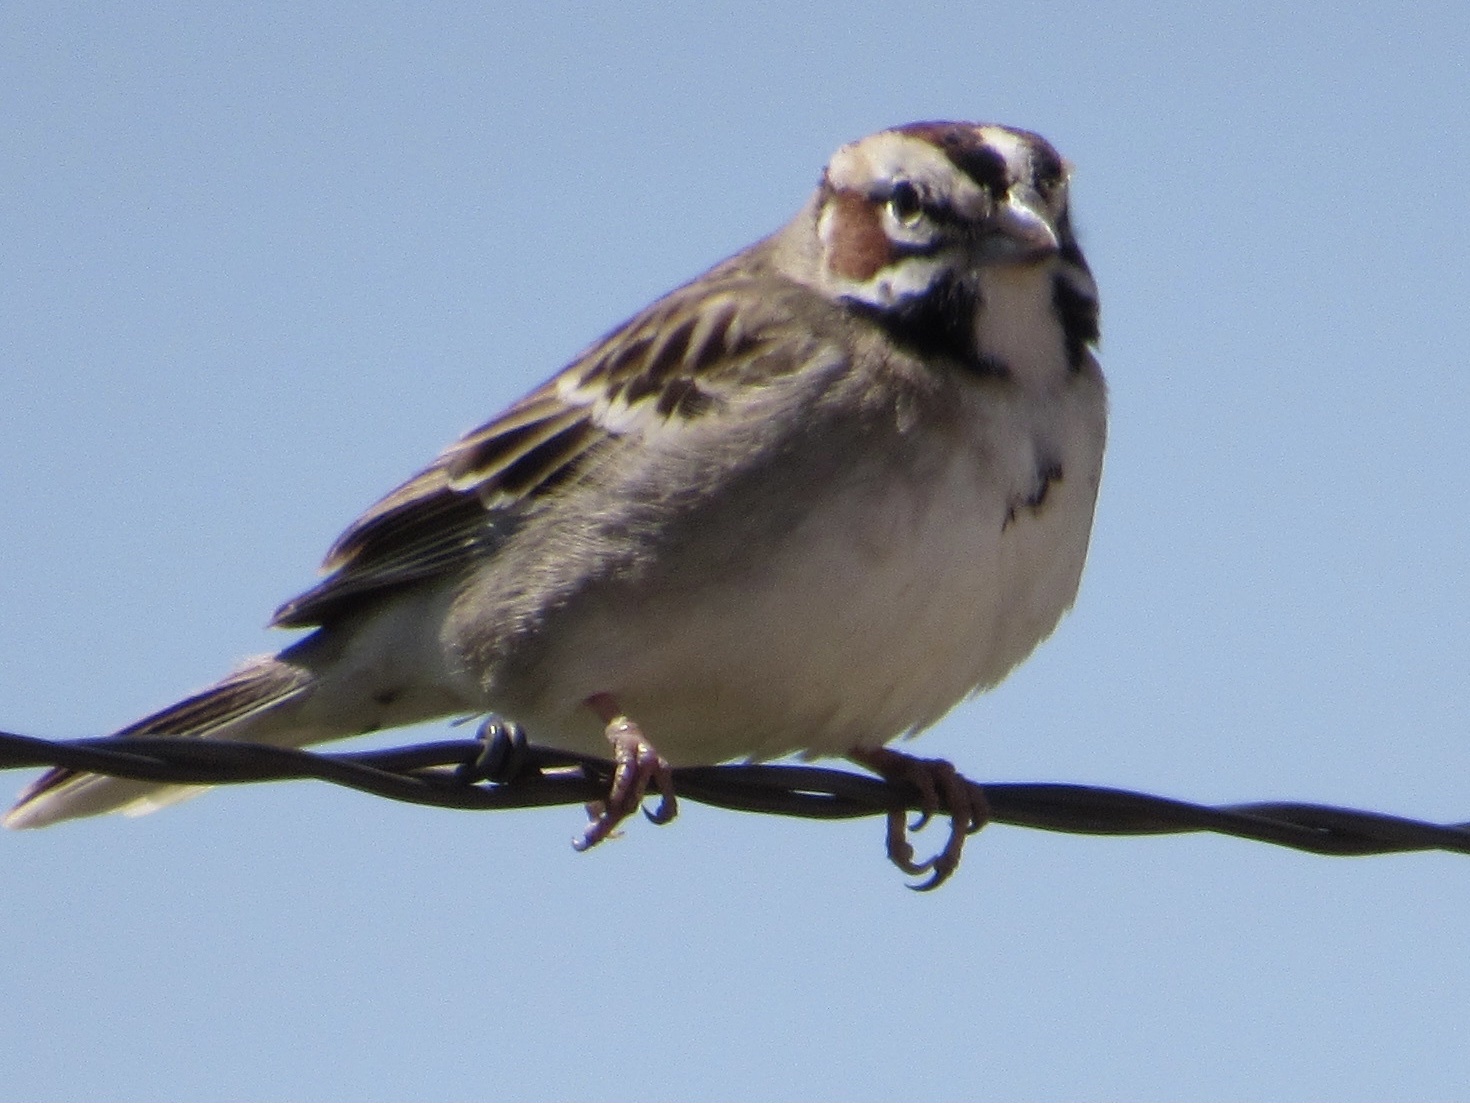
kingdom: Animalia
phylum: Chordata
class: Aves
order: Passeriformes
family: Passerellidae
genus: Chondestes
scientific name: Chondestes grammacus
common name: Lark sparrow
